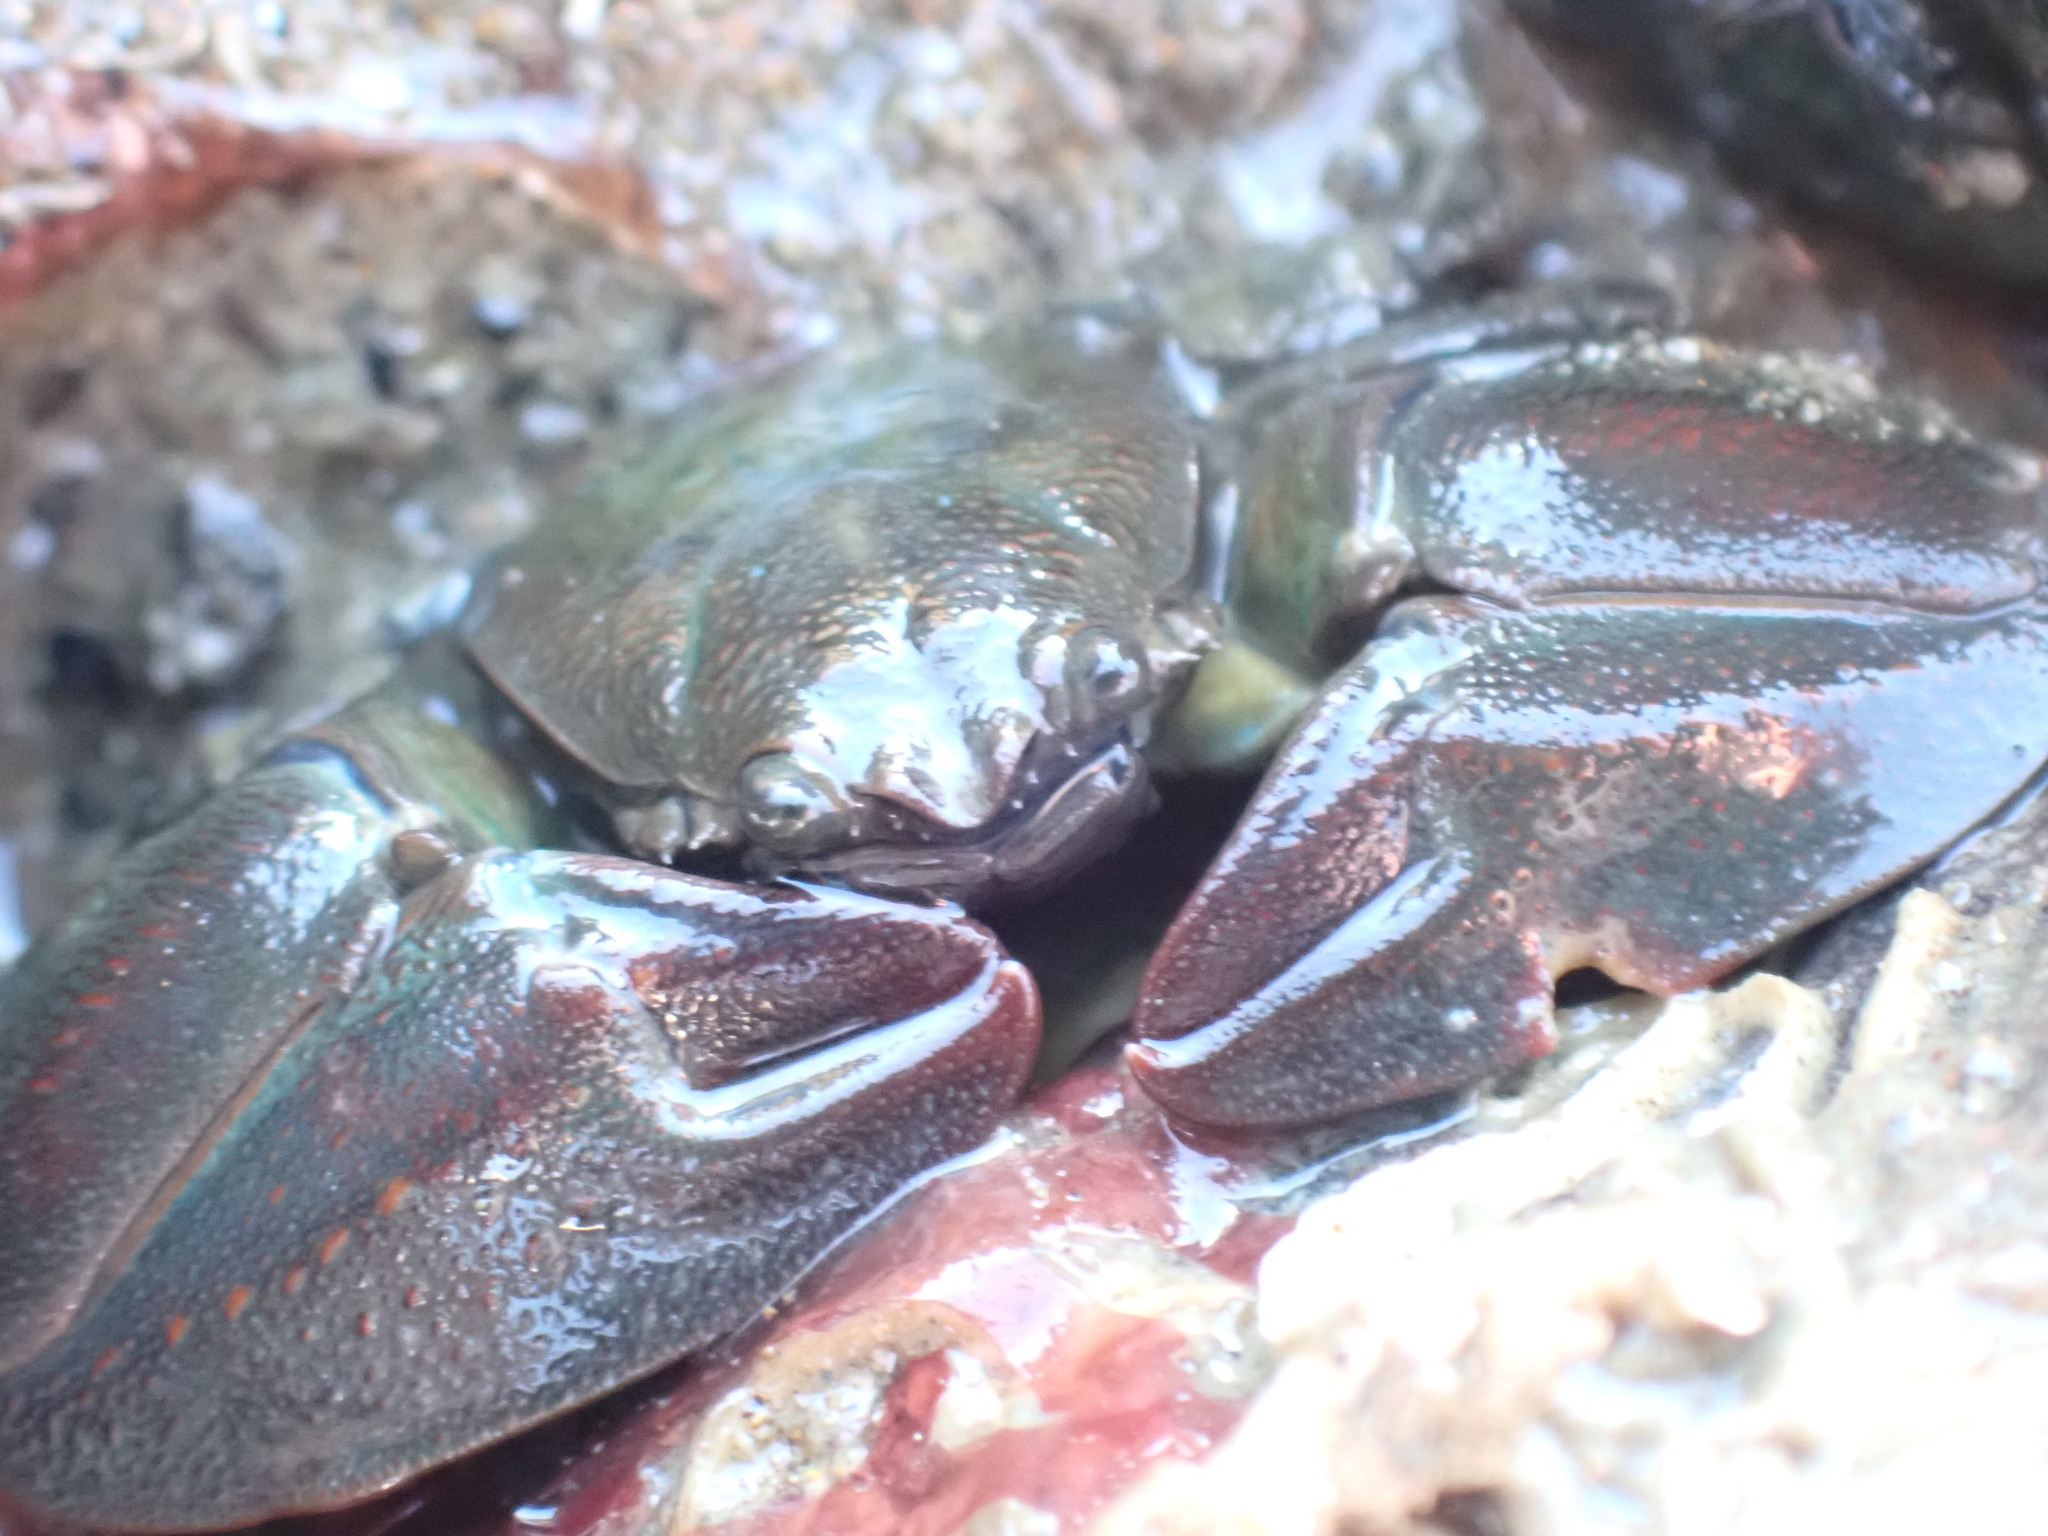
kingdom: Animalia
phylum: Arthropoda
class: Malacostraca
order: Decapoda
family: Porcellanidae
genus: Petrolisthes
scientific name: Petrolisthes elongatus
